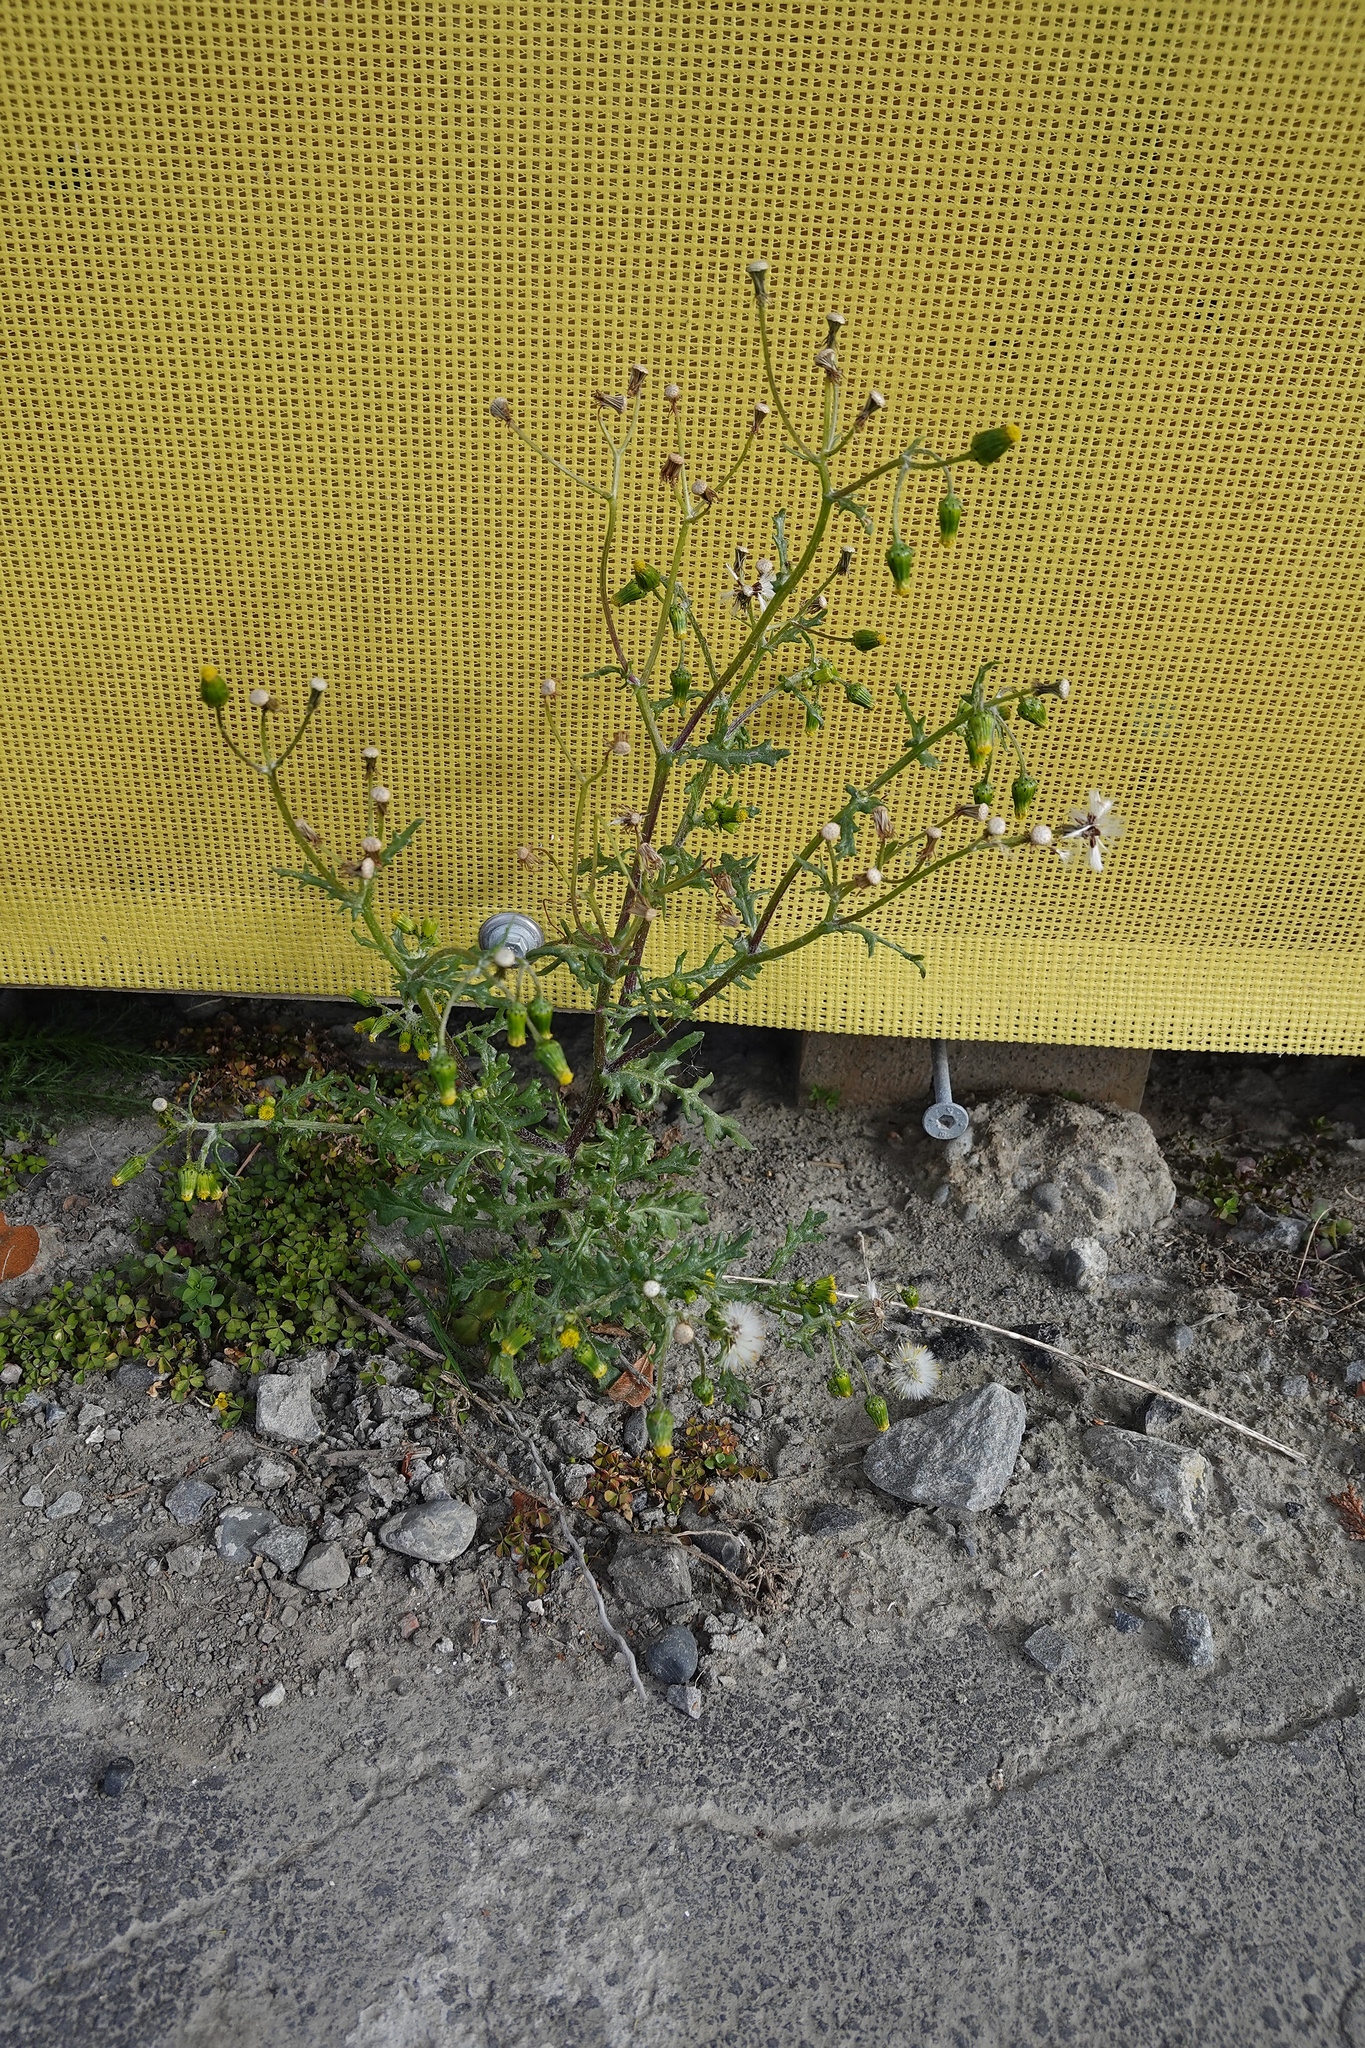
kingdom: Plantae
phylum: Tracheophyta
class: Magnoliopsida
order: Asterales
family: Asteraceae
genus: Senecio
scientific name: Senecio vulgaris
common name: Old-man-in-the-spring
